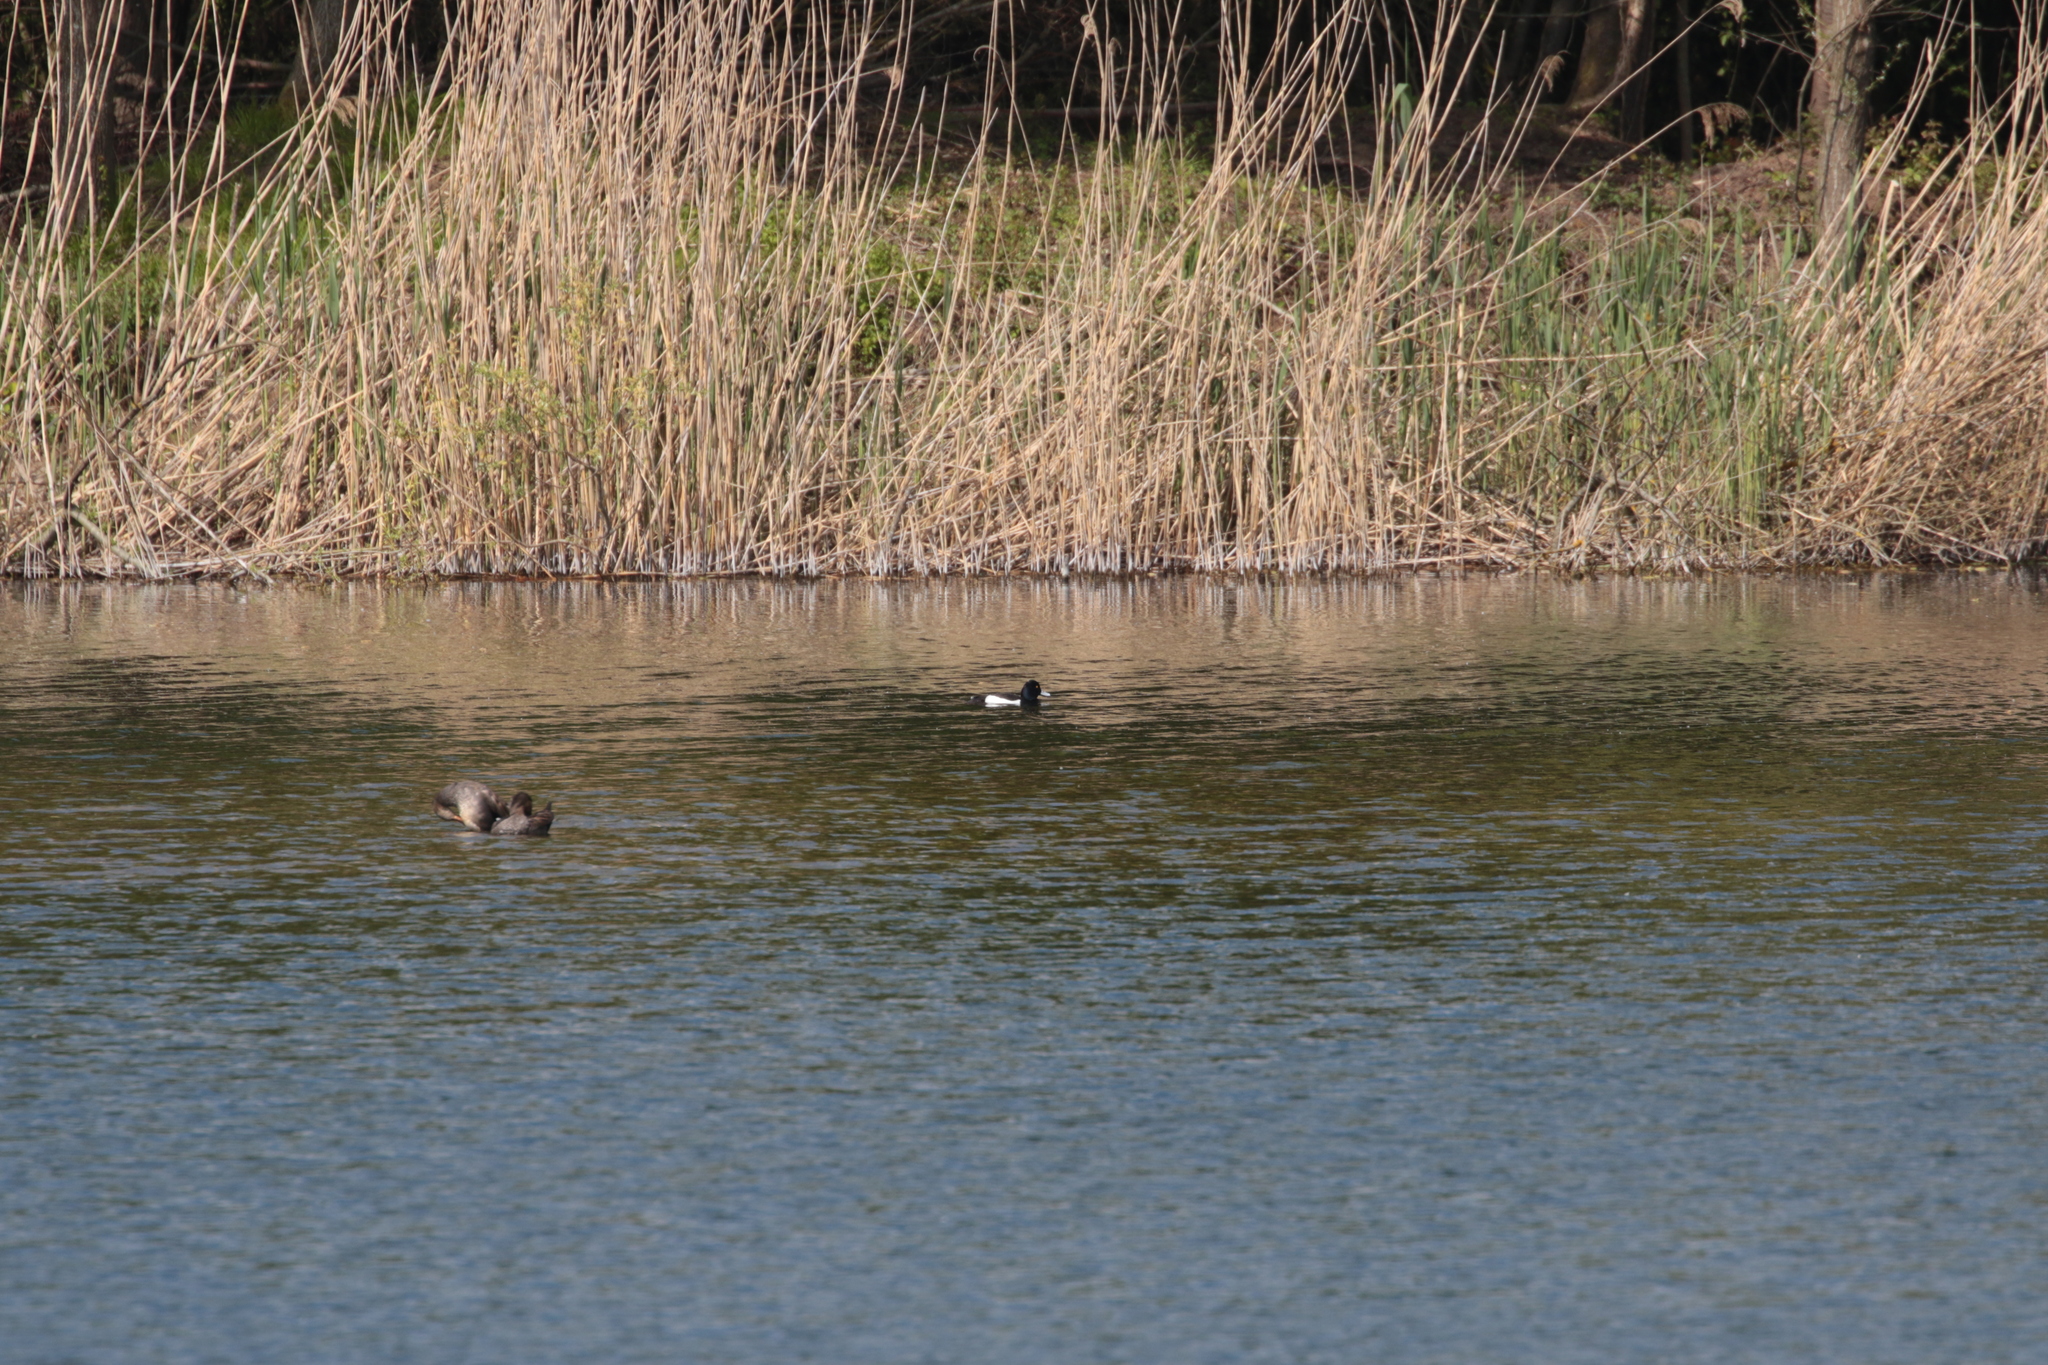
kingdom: Animalia
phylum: Chordata
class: Aves
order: Anseriformes
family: Anatidae
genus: Aythya
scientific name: Aythya fuligula
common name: Tufted duck
